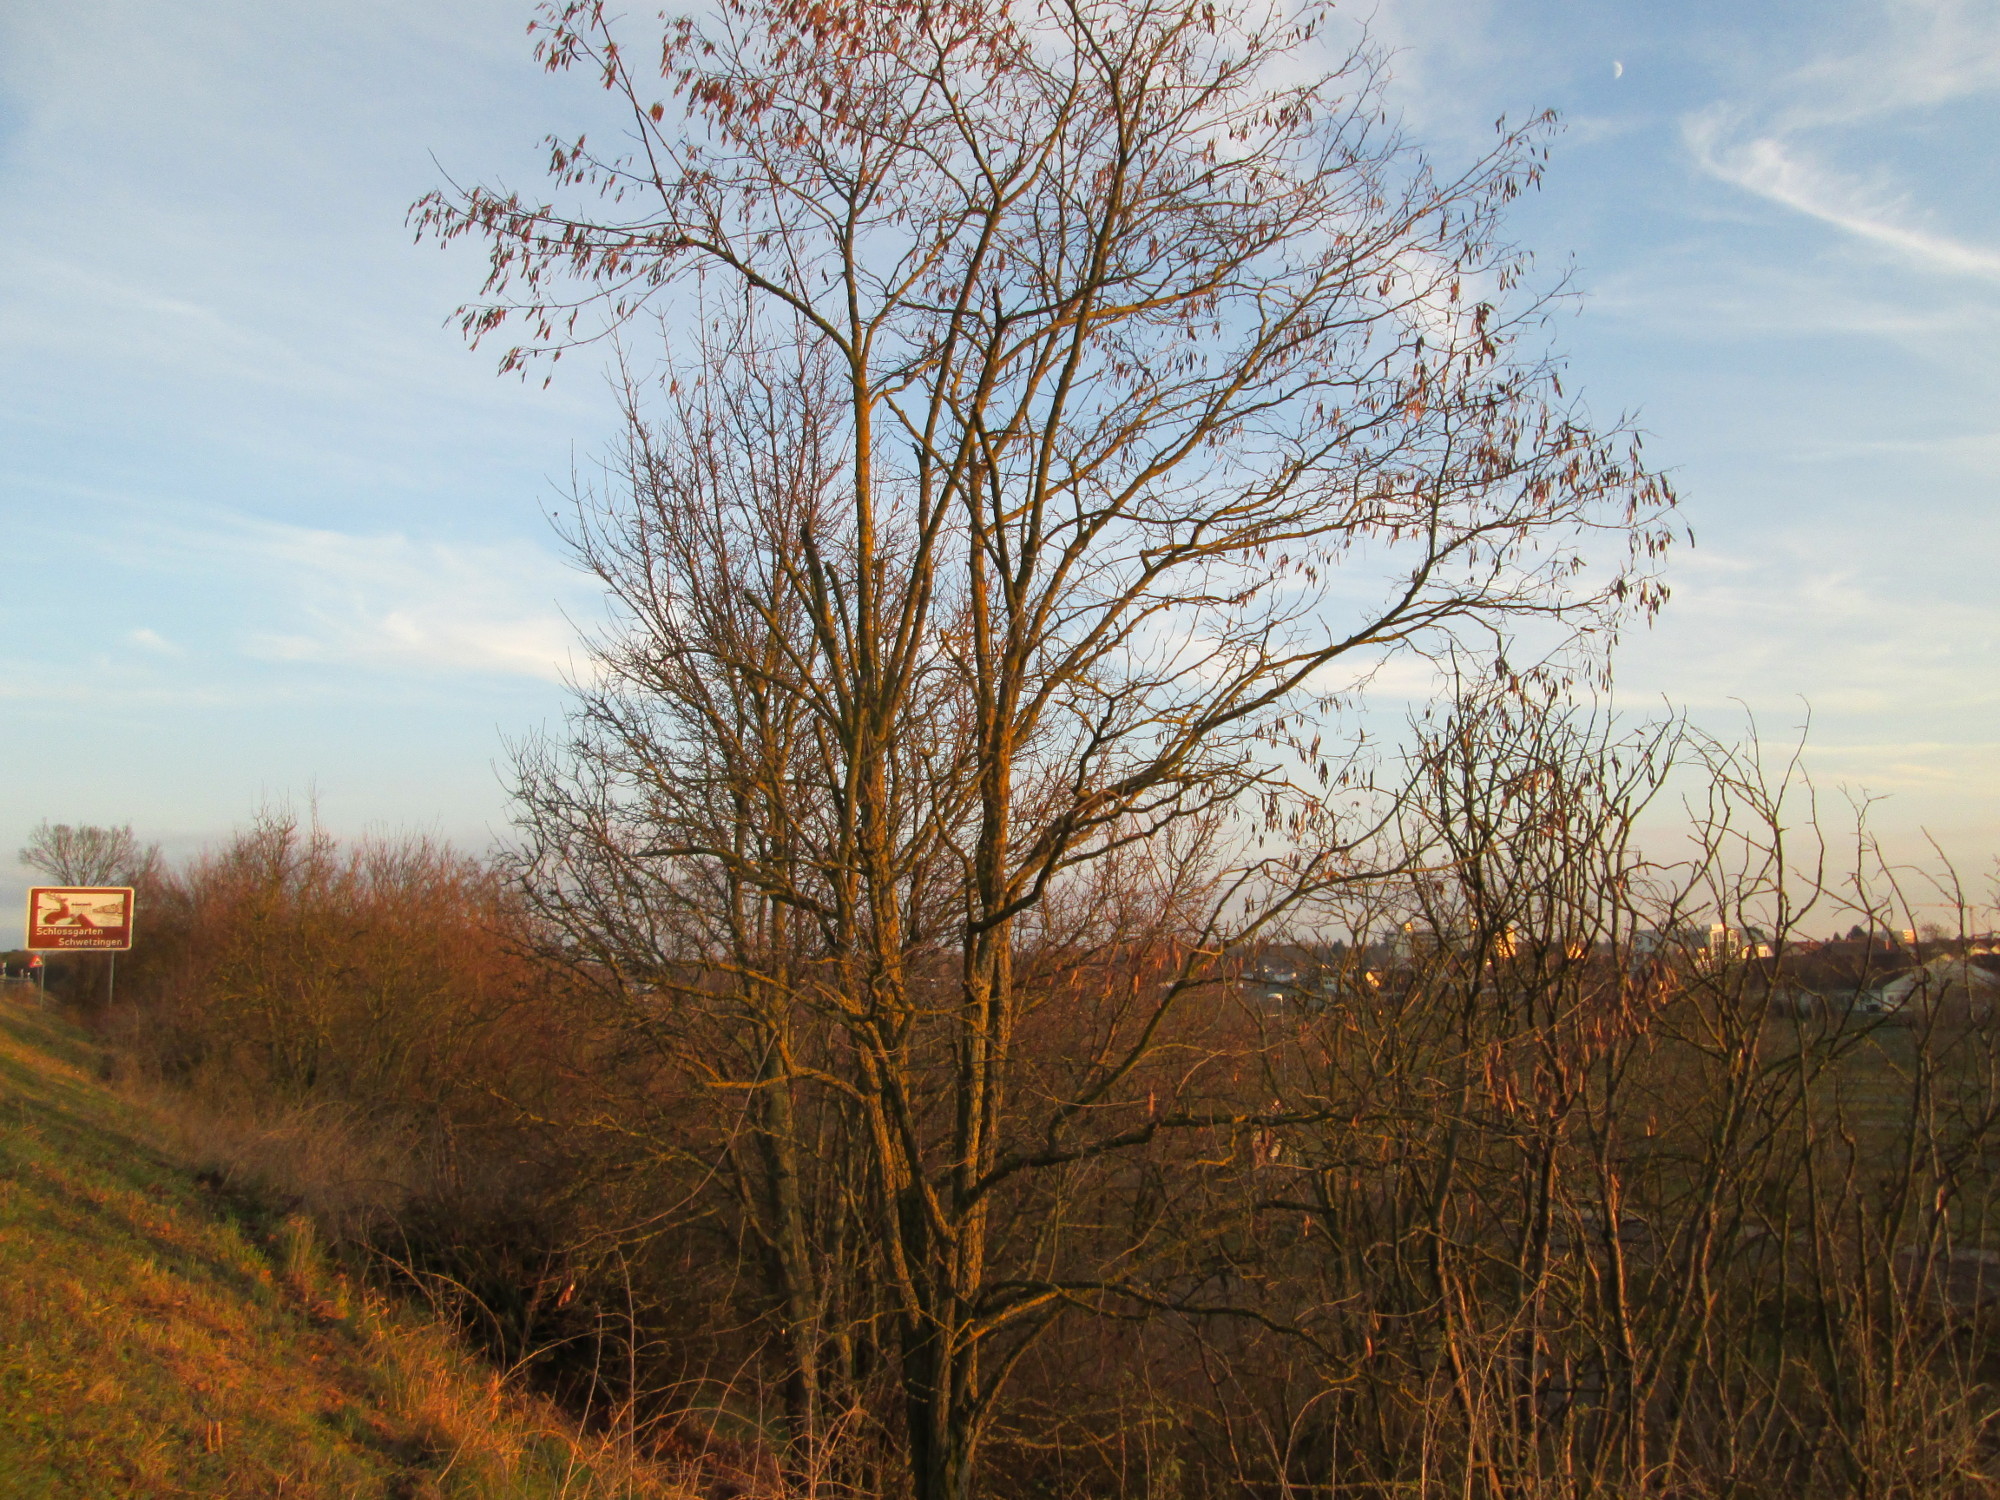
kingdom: Plantae
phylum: Tracheophyta
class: Magnoliopsida
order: Fabales
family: Fabaceae
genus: Robinia
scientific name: Robinia pseudoacacia
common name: Black locust
